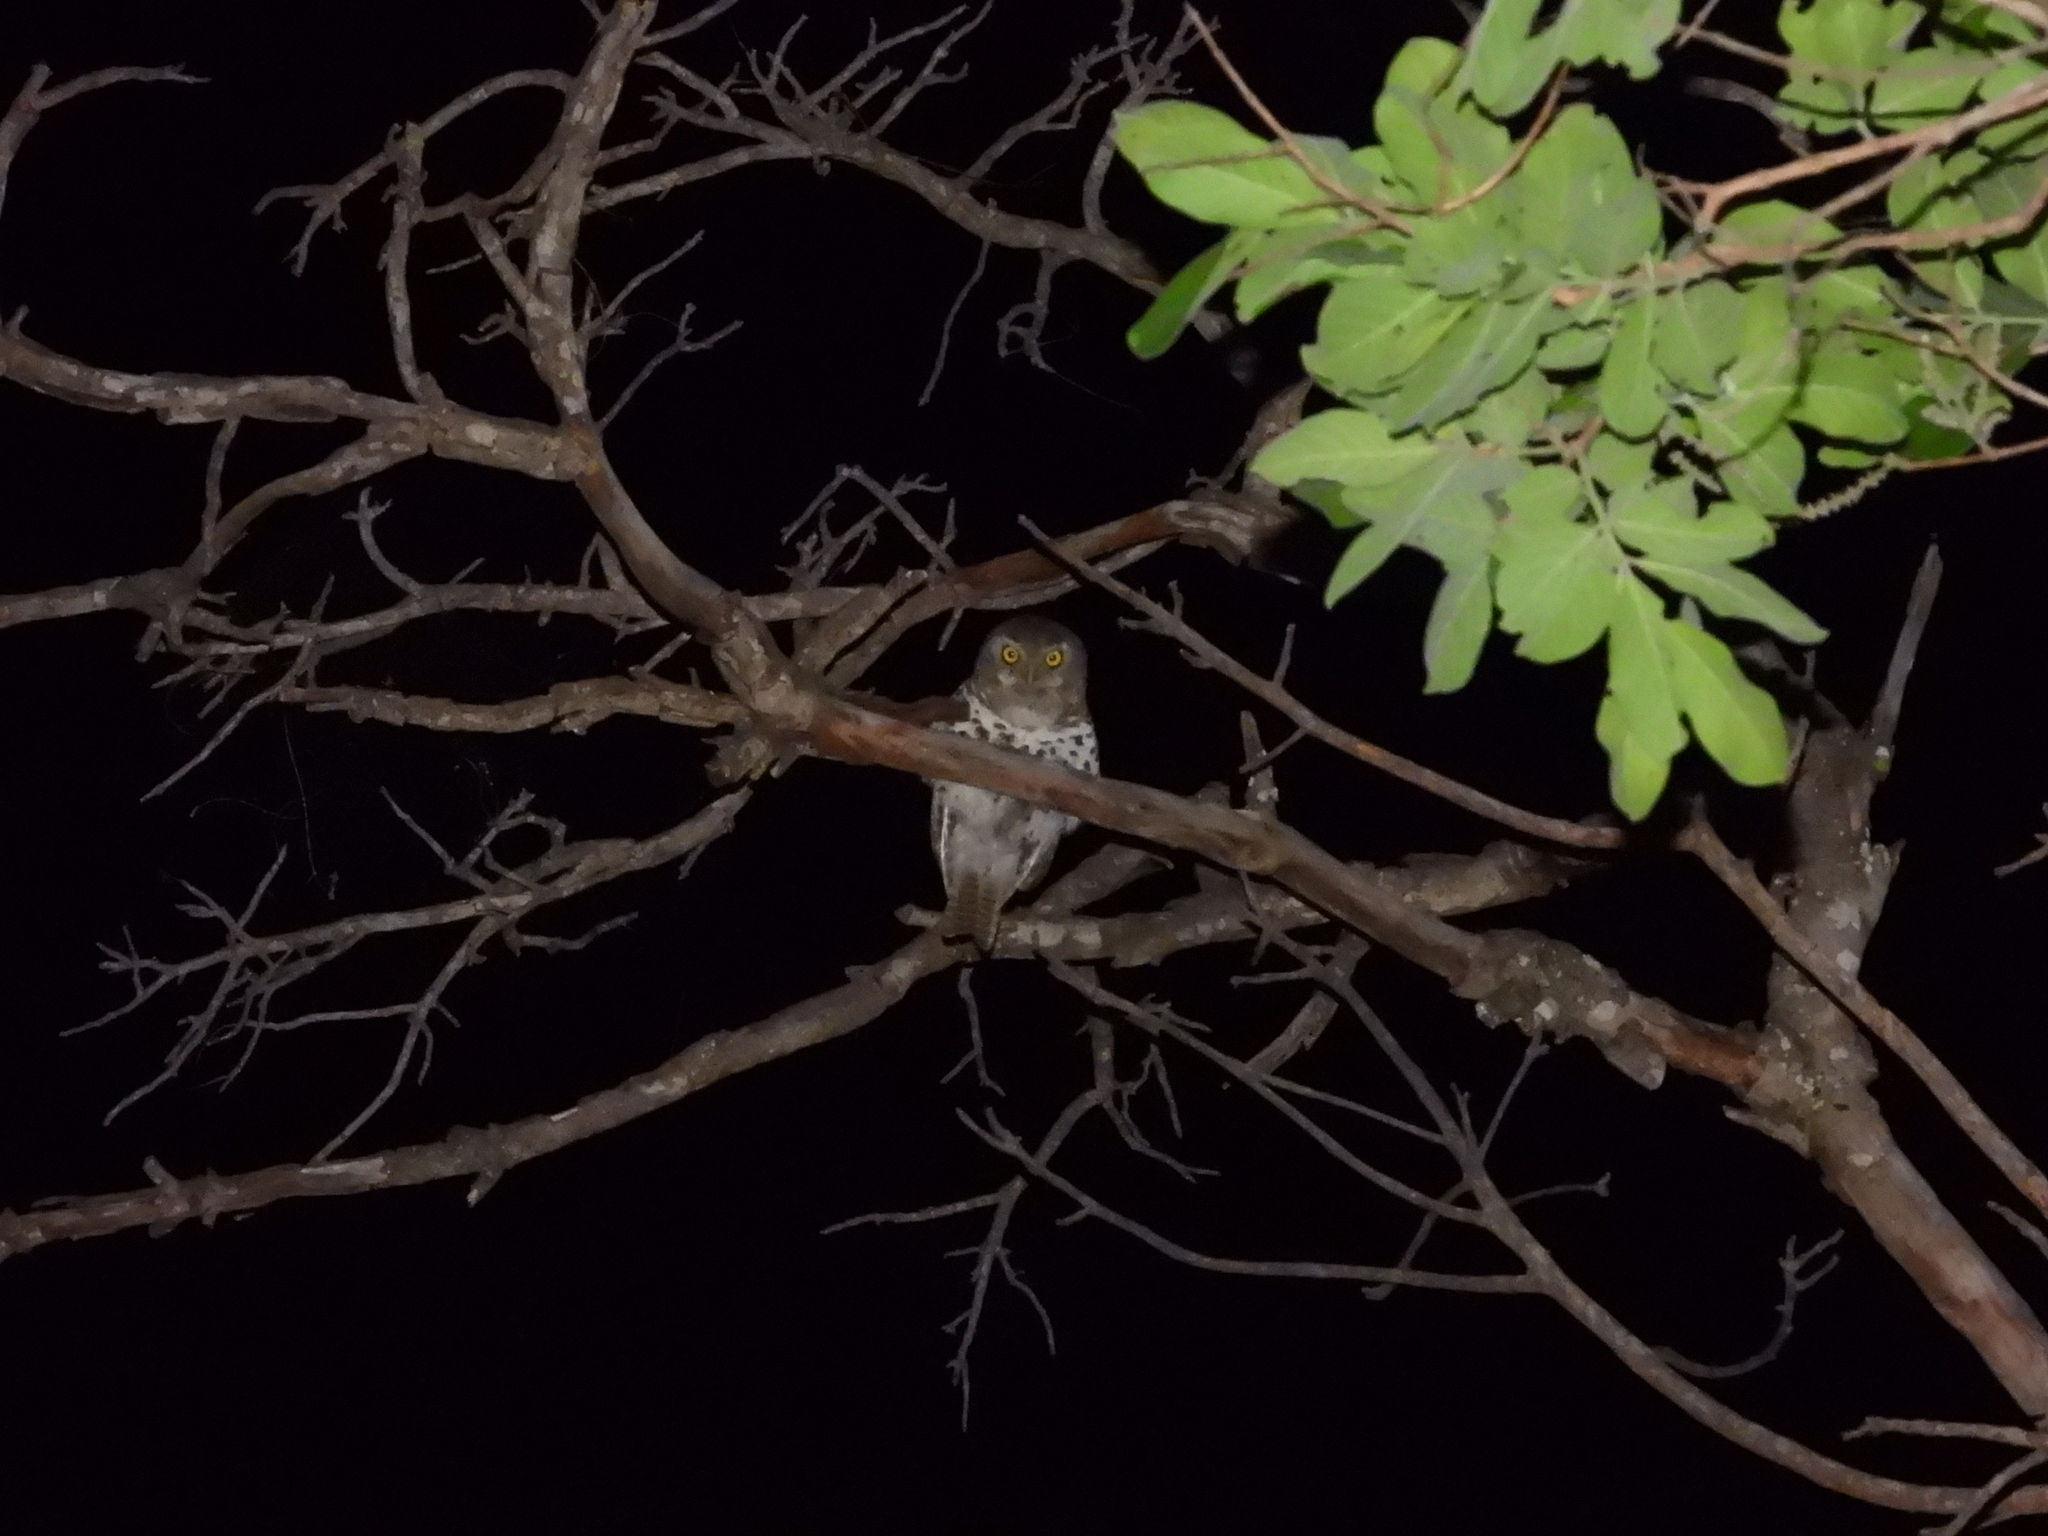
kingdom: Animalia
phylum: Chordata
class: Aves
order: Strigiformes
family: Strigidae
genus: Glaucidium
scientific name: Glaucidium capense
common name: African barred owlet
